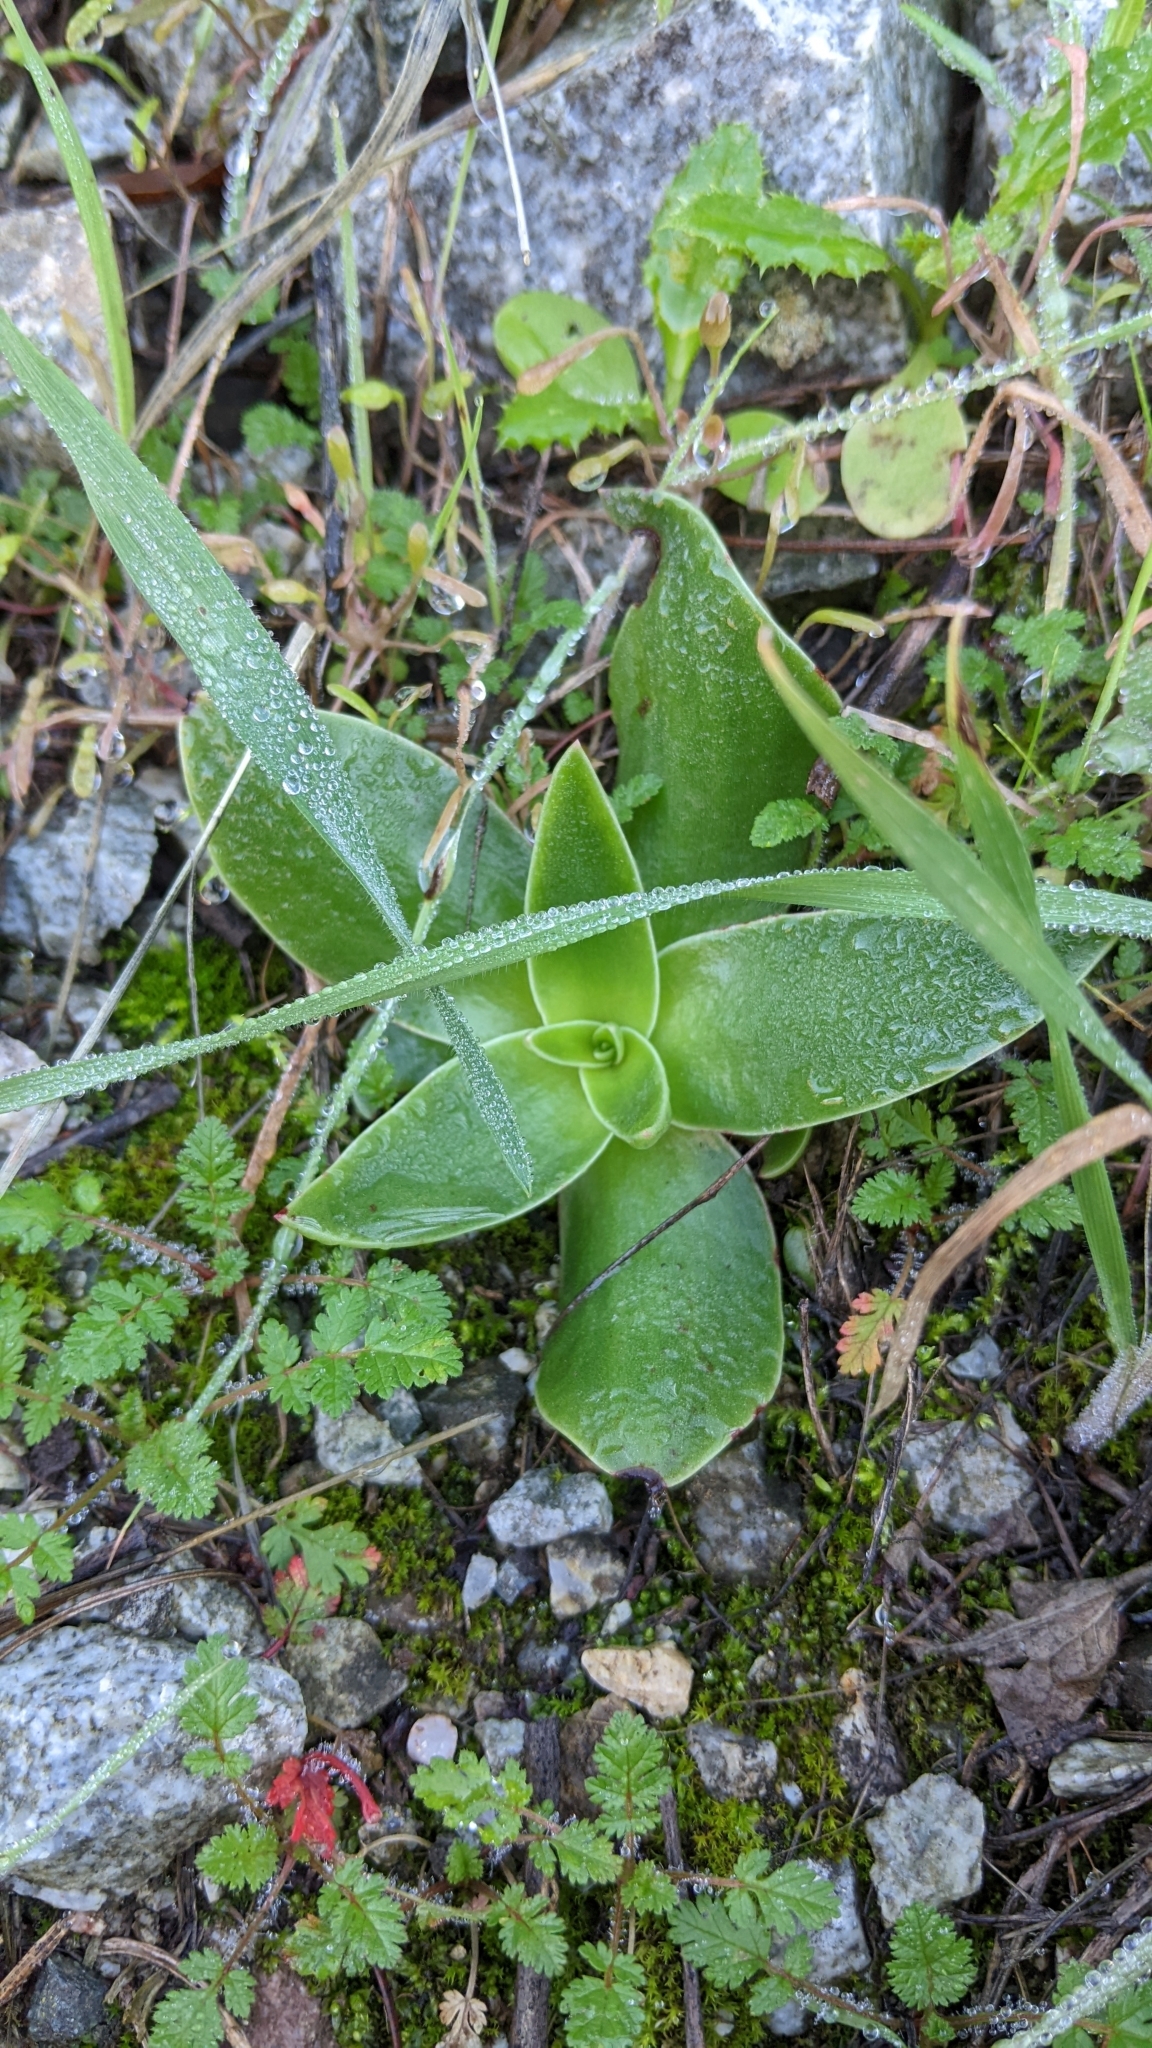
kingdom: Plantae
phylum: Tracheophyta
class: Magnoliopsida
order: Saxifragales
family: Crassulaceae
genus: Dudleya
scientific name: Dudleya lanceolata
